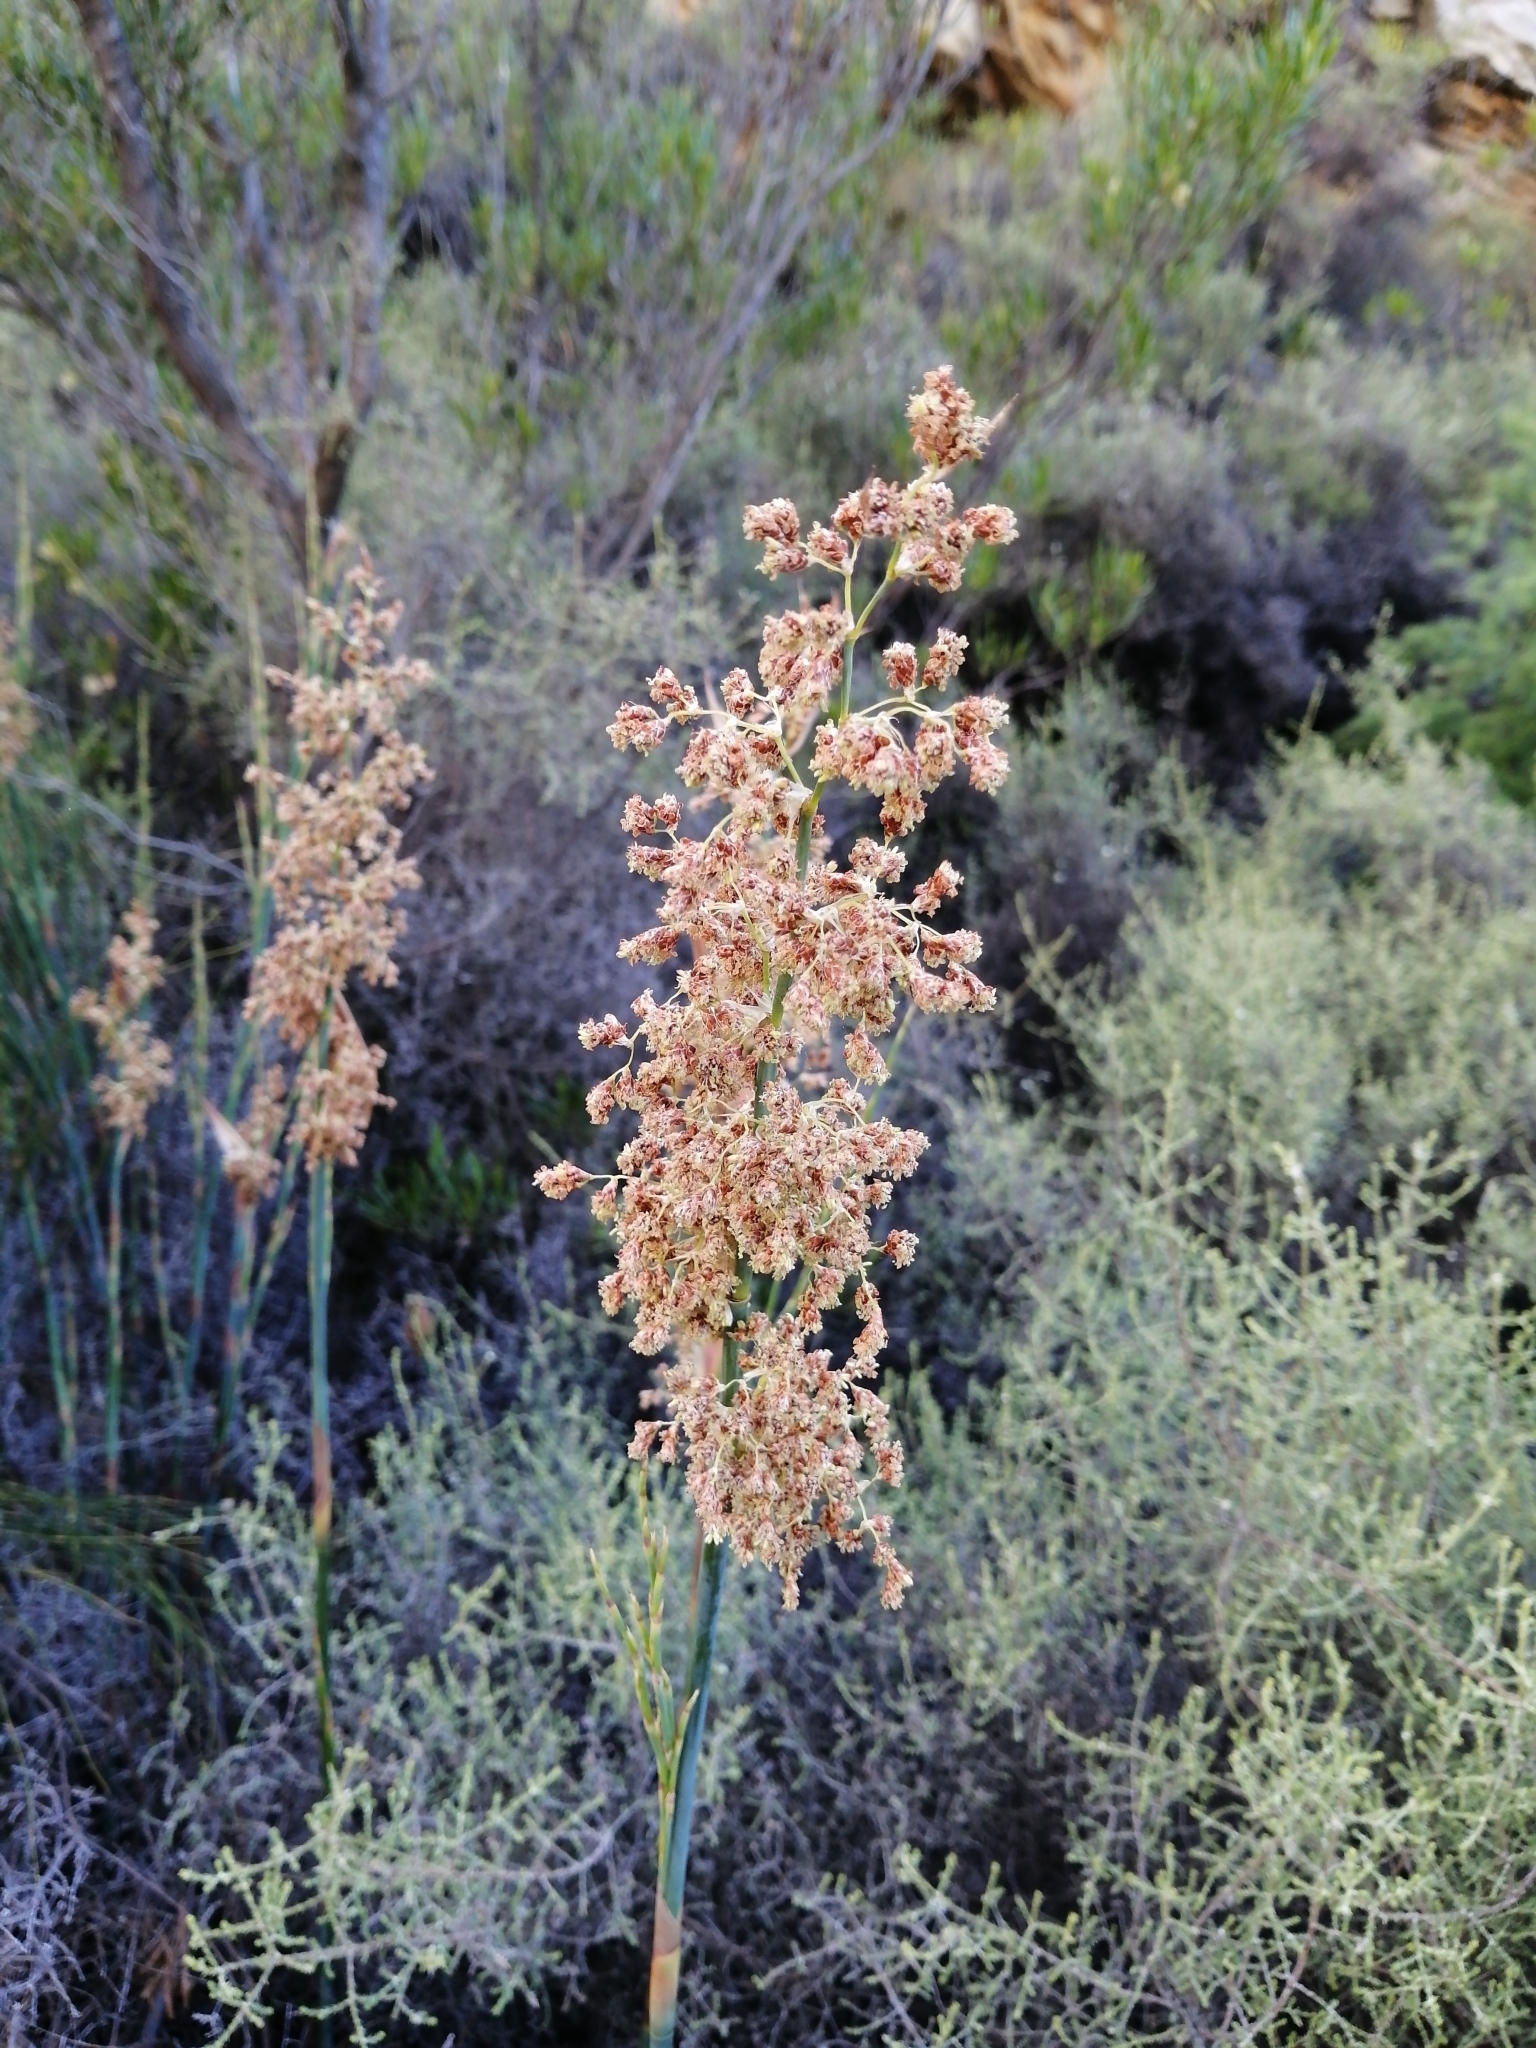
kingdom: Plantae
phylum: Tracheophyta
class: Liliopsida
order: Poales
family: Restionaceae
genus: Cannomois
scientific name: Cannomois parviflora
